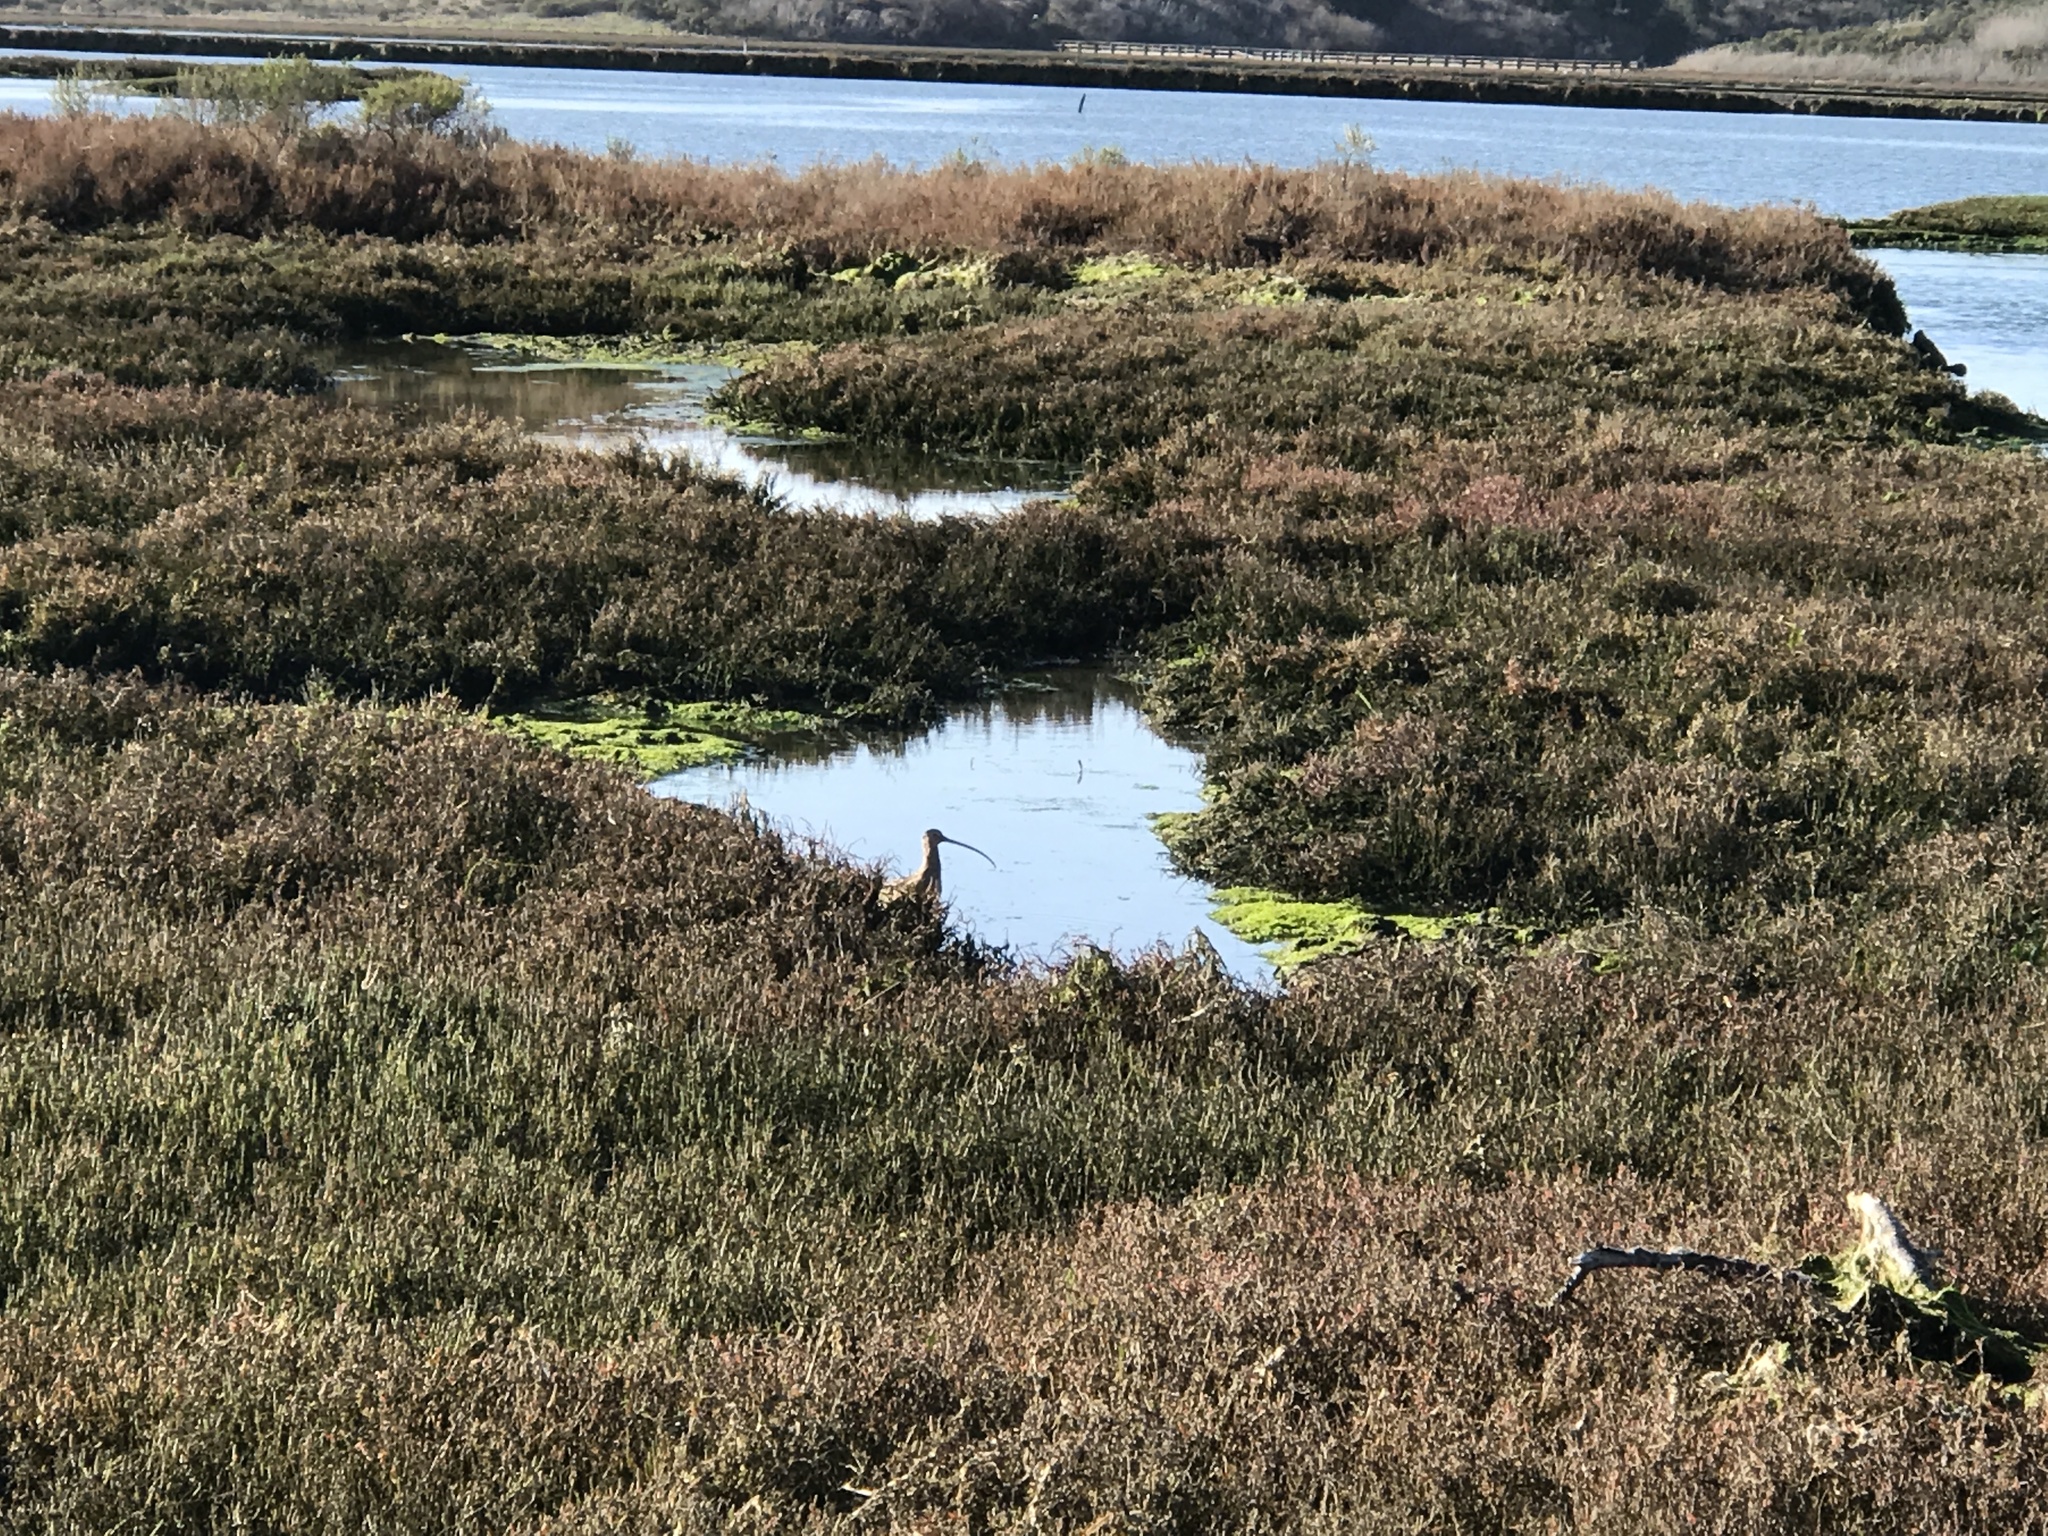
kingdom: Animalia
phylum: Chordata
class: Aves
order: Charadriiformes
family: Scolopacidae
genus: Numenius
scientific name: Numenius americanus
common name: Long-billed curlew
